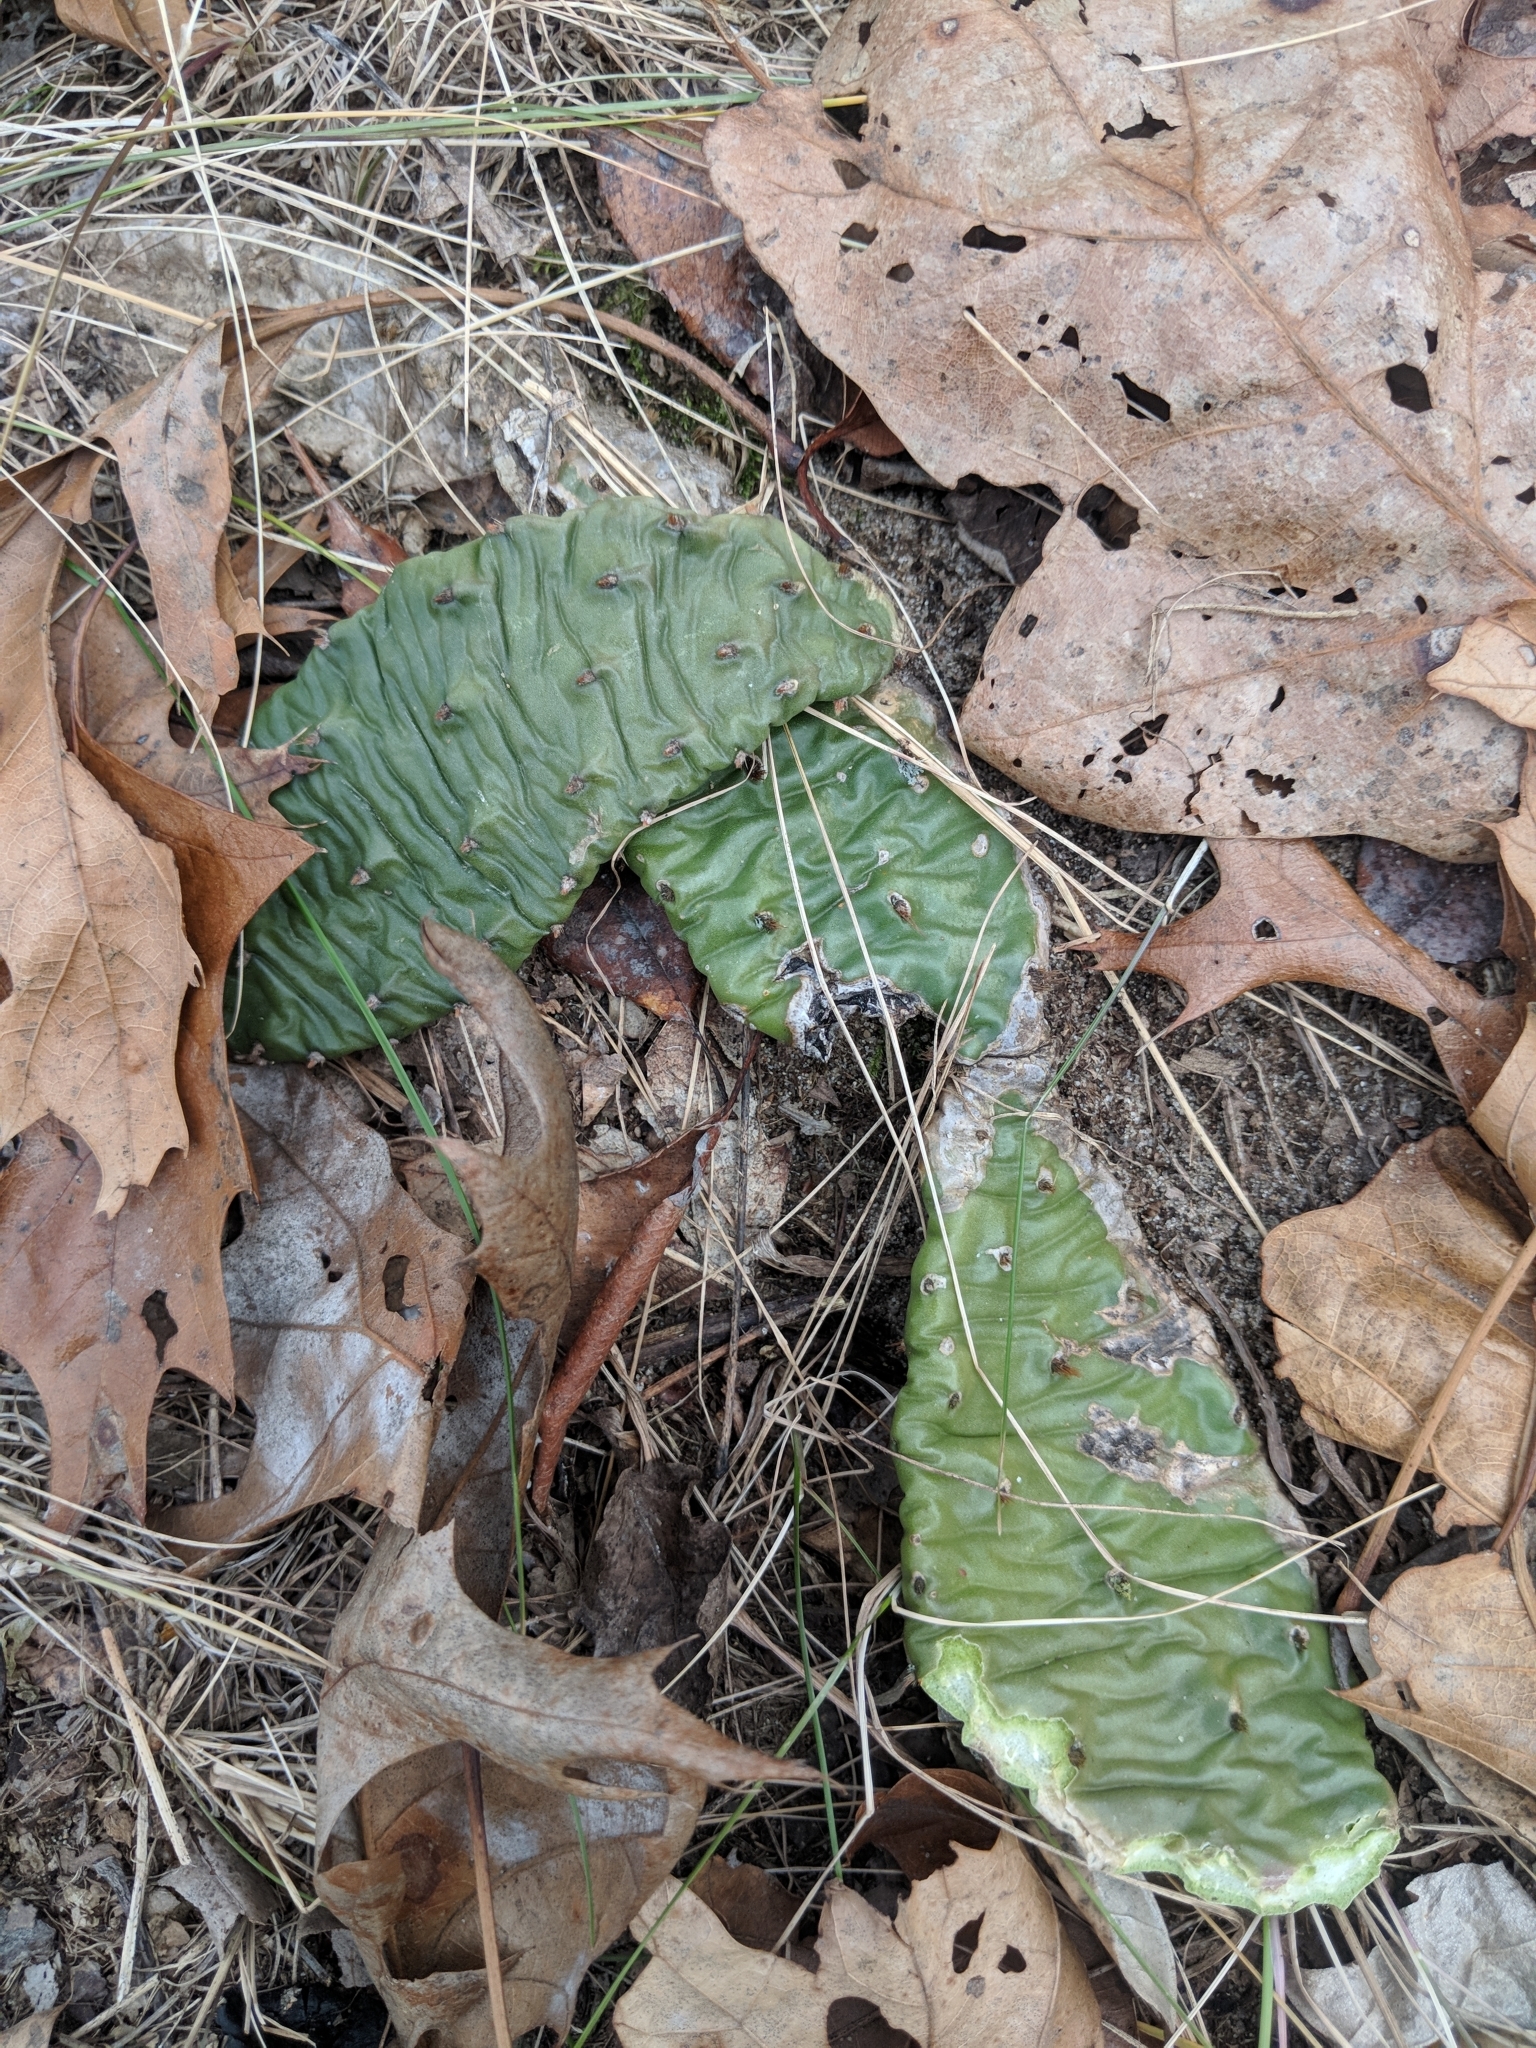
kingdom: Plantae
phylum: Tracheophyta
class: Magnoliopsida
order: Caryophyllales
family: Cactaceae
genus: Opuntia
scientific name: Opuntia humifusa
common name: Eastern prickly-pear
